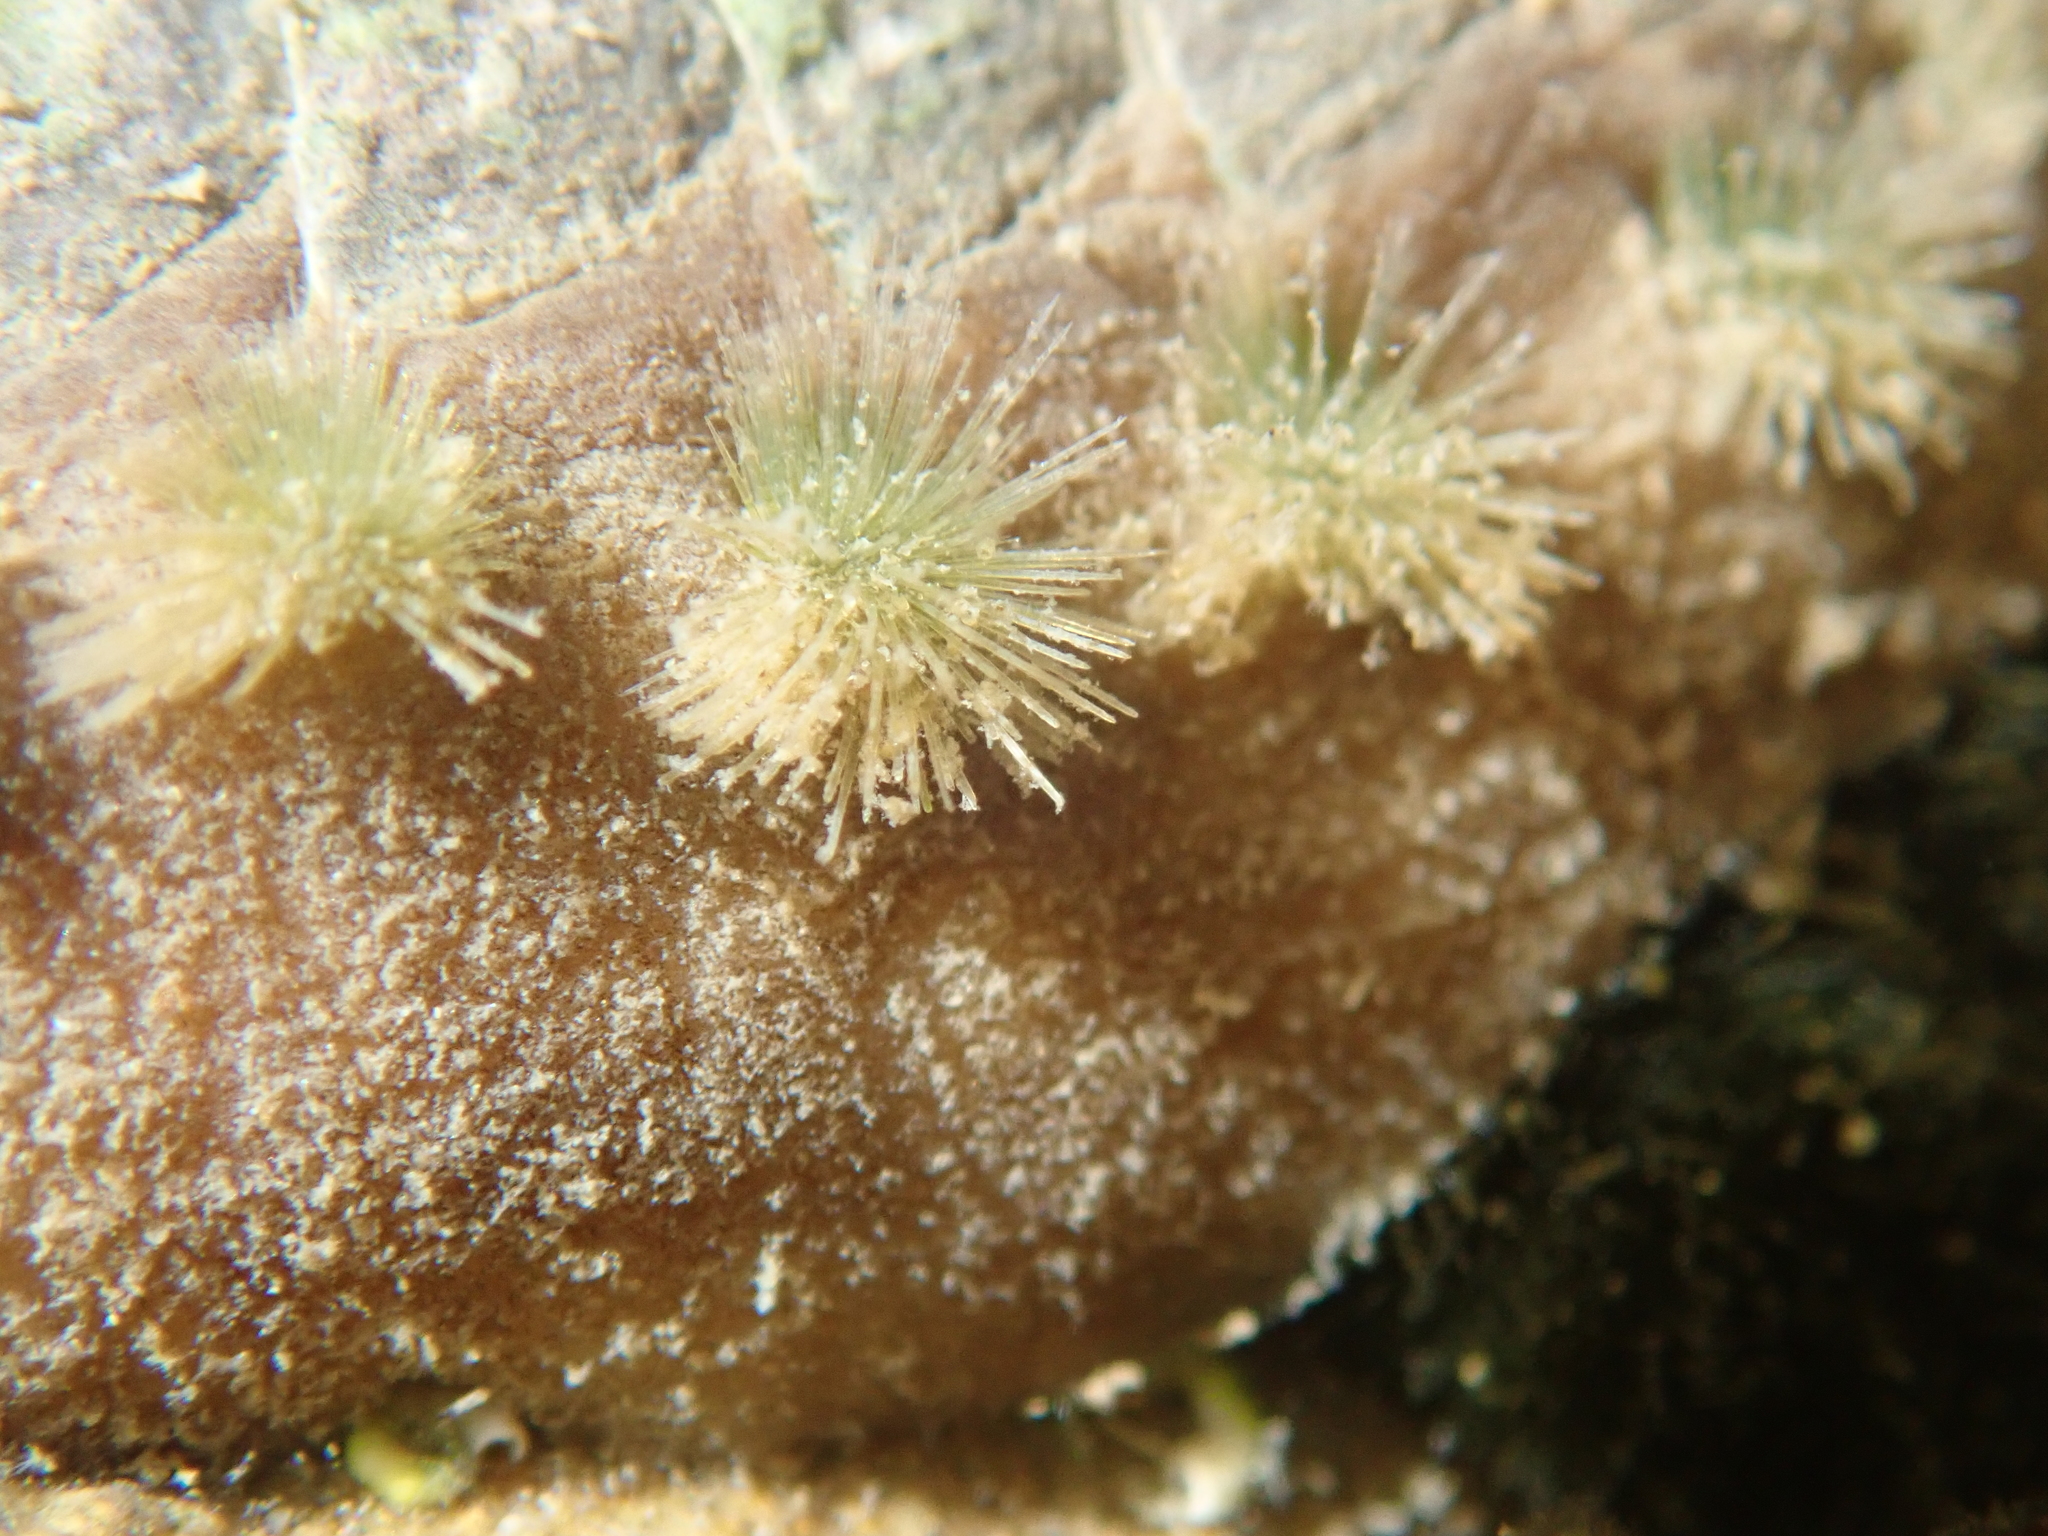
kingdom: Animalia
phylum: Mollusca
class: Polyplacophora
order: Chitonida
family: Acanthochitonidae
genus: Acanthochitona
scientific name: Acanthochitona zelandica
